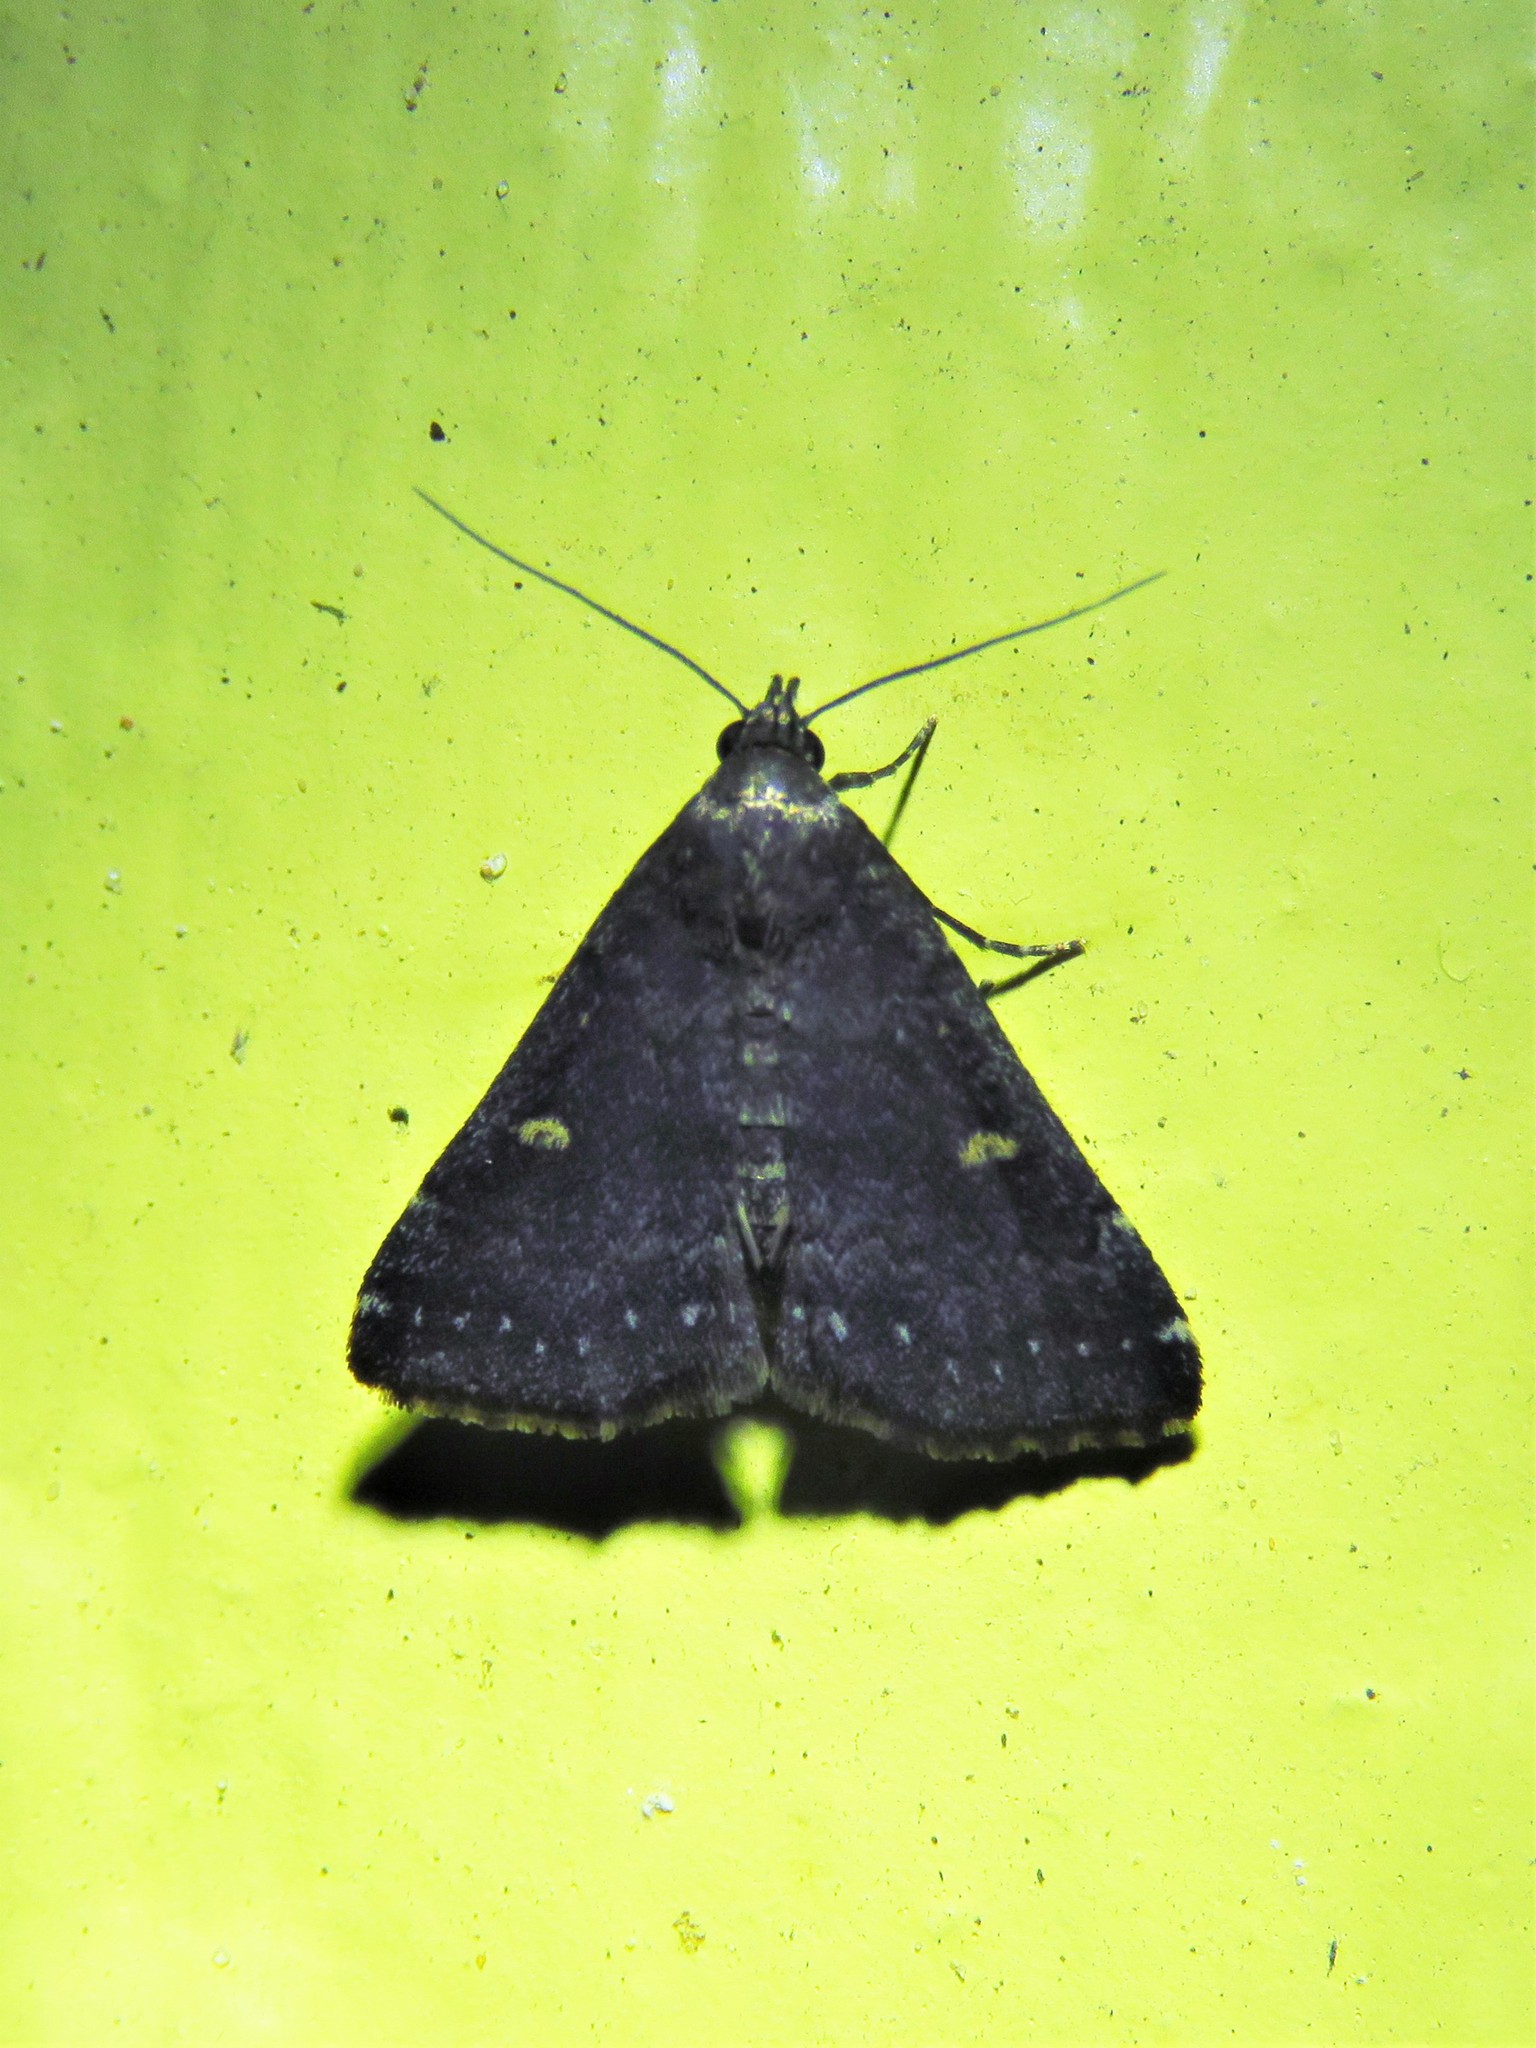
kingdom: Animalia
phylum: Arthropoda
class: Insecta
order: Lepidoptera
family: Erebidae
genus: Tetanolita
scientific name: Tetanolita mynesalis
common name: Smoky tetanolita moth
